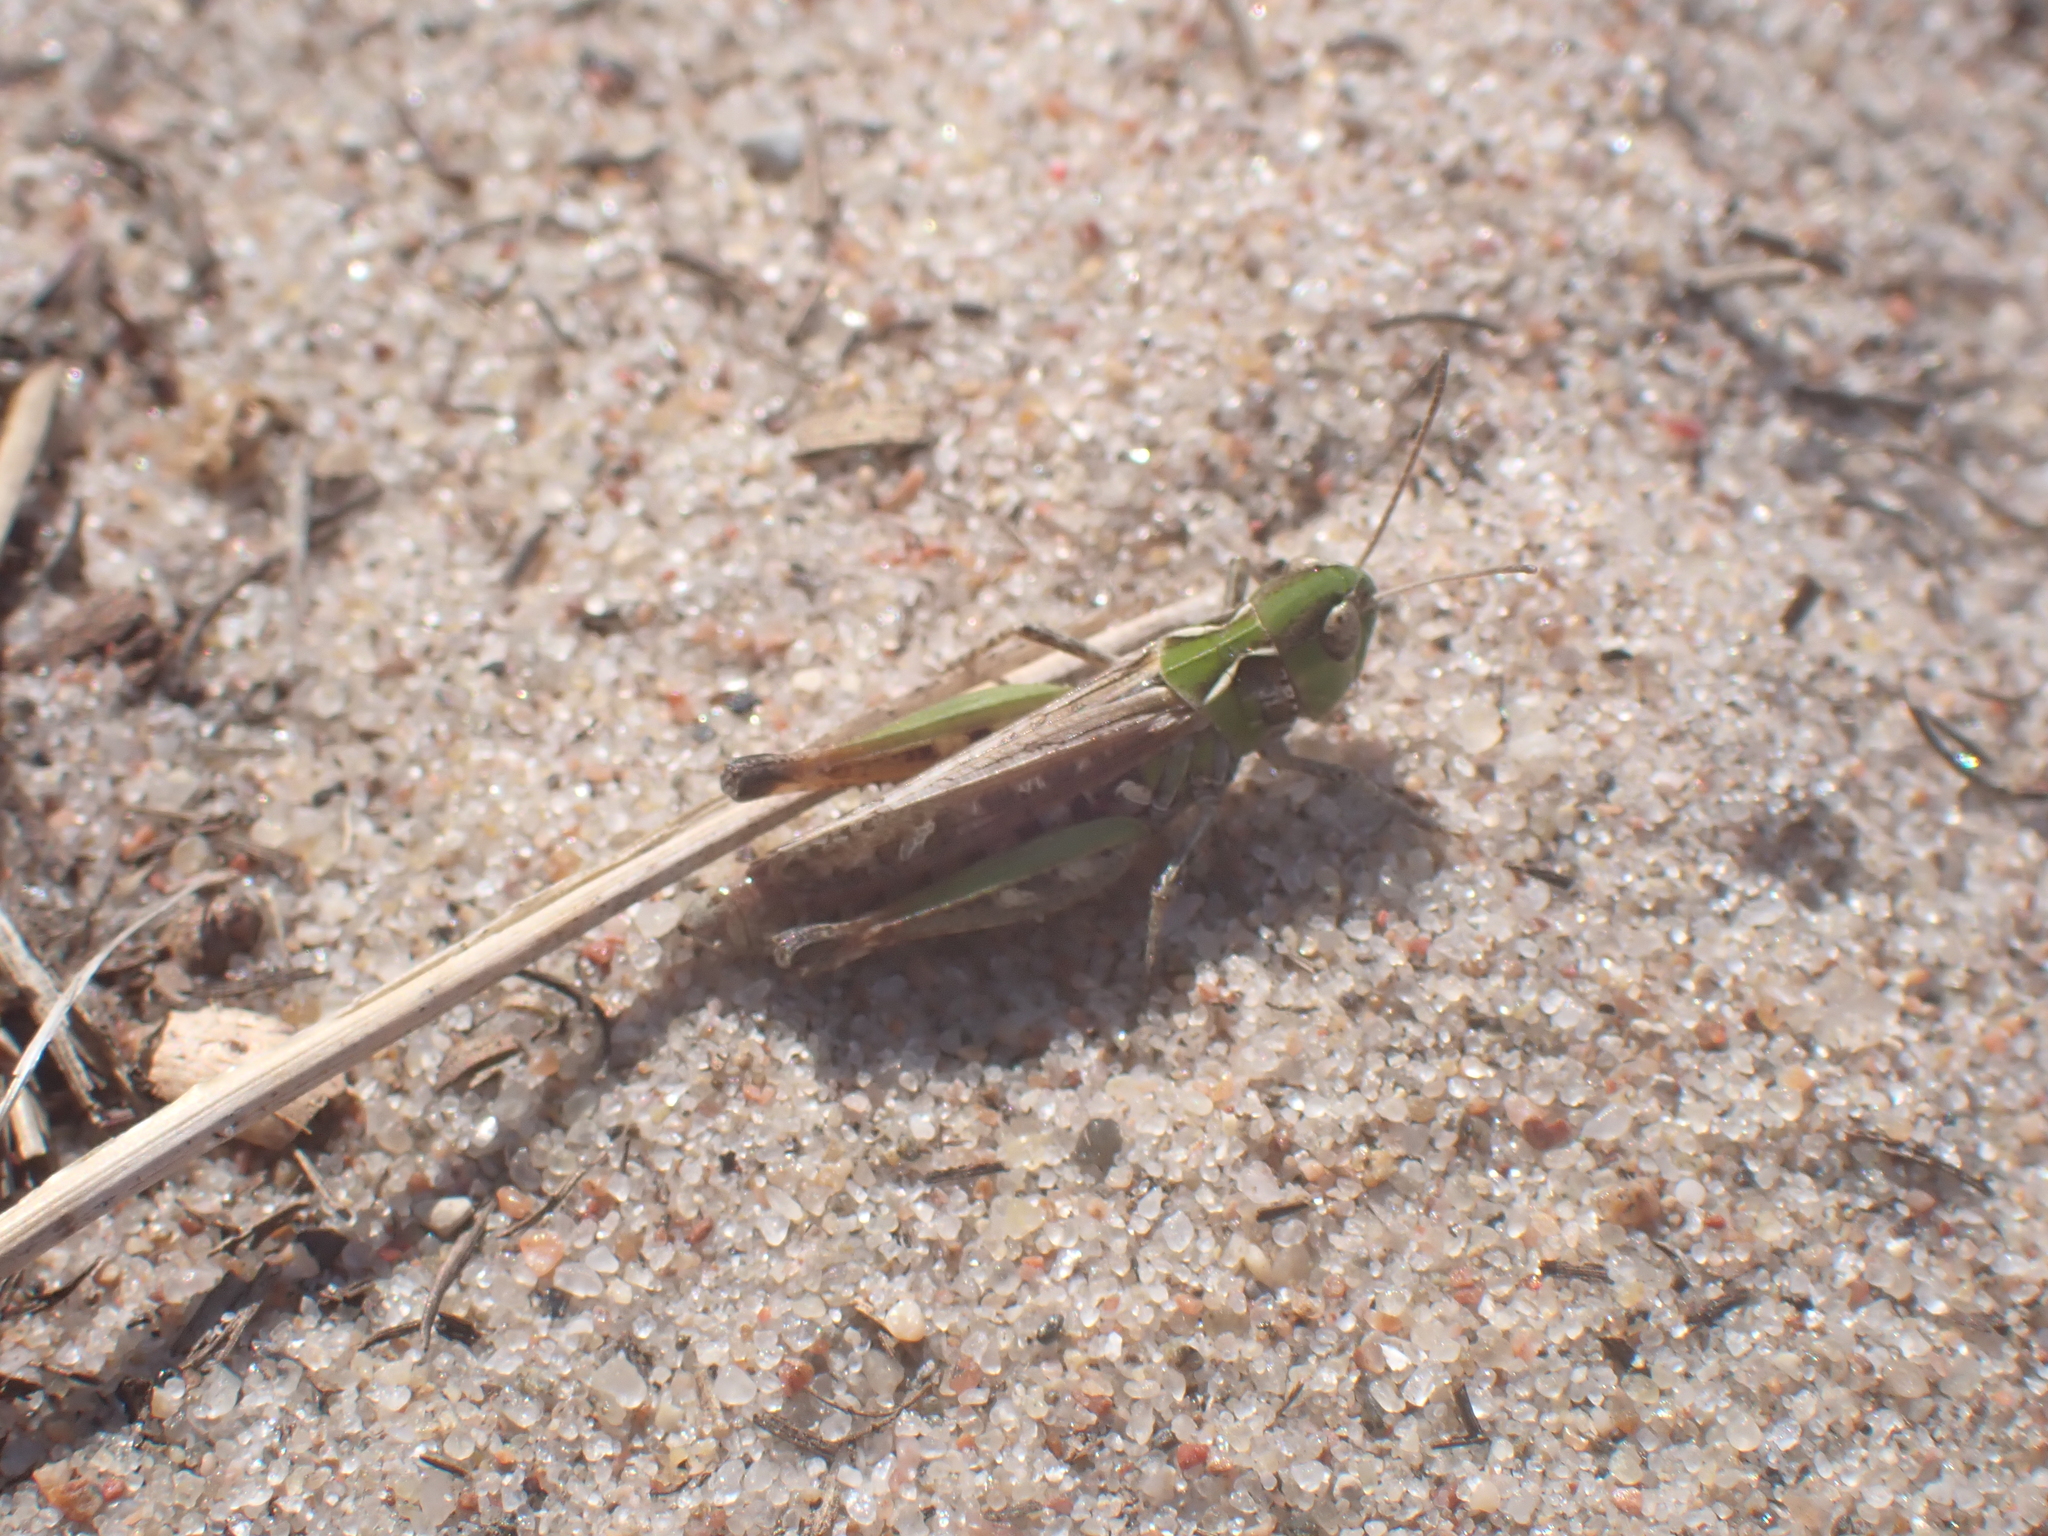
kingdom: Animalia
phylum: Arthropoda
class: Insecta
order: Orthoptera
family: Acrididae
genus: Myrmeleotettix
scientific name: Myrmeleotettix maculatus
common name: Mottled grasshopper
